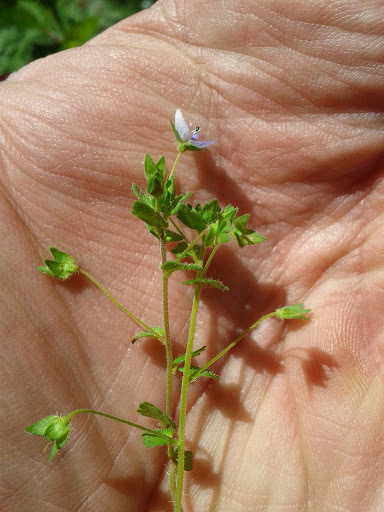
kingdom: Plantae
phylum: Tracheophyta
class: Magnoliopsida
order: Lamiales
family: Plantaginaceae
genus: Veronica
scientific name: Veronica persica
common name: Common field-speedwell
